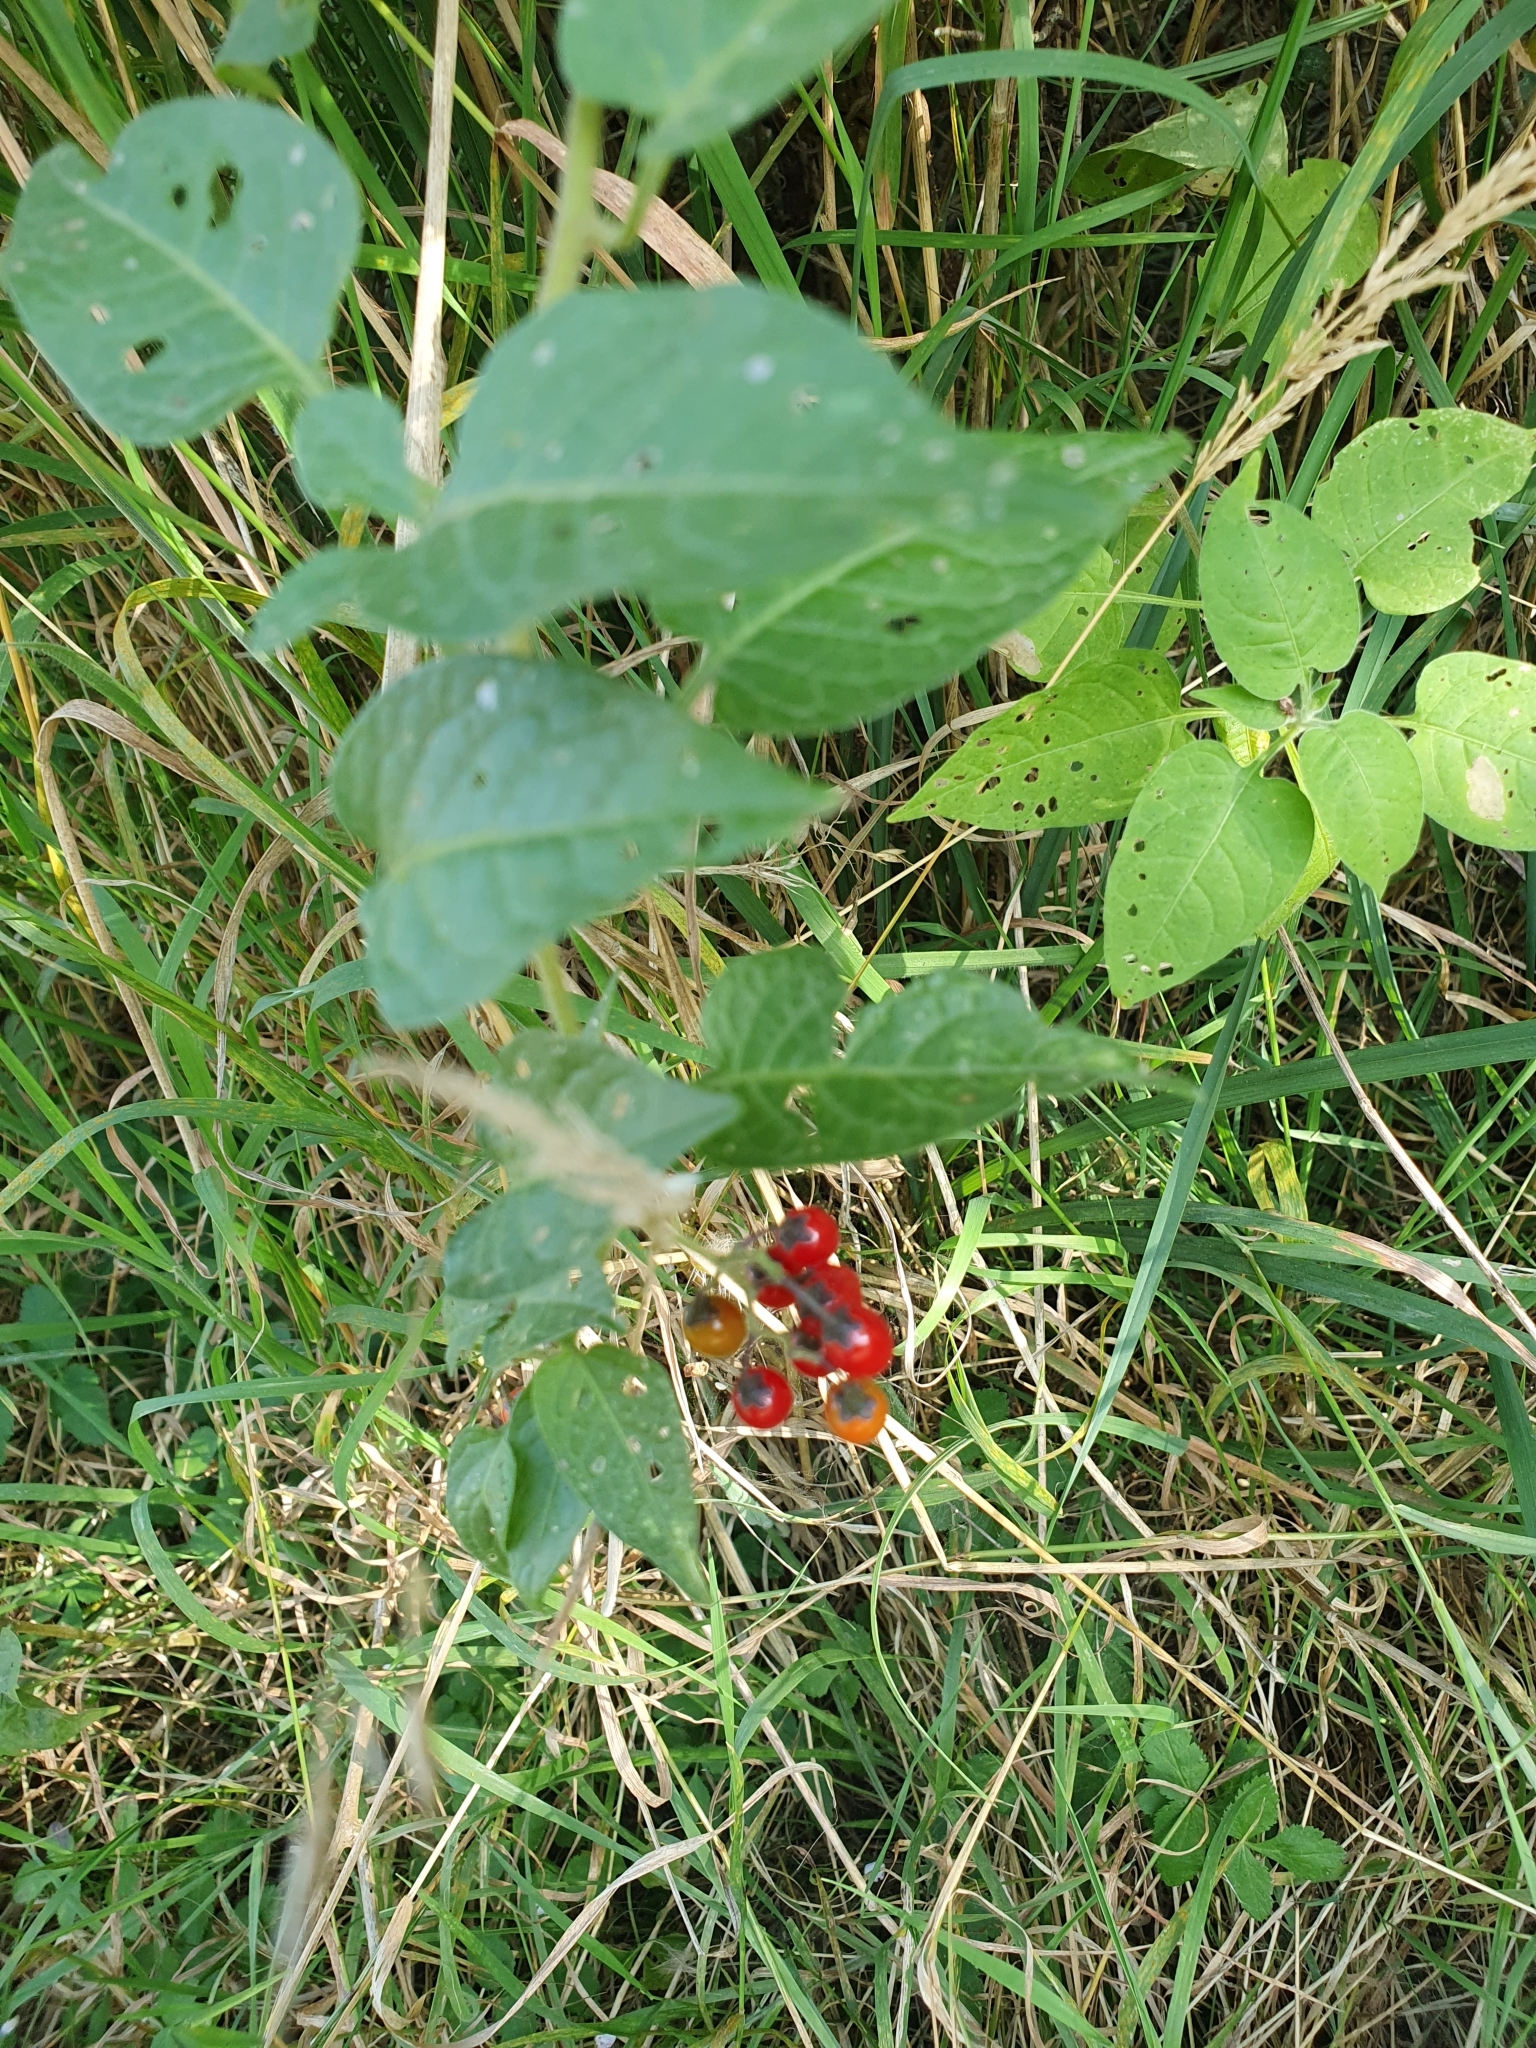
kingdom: Plantae
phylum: Tracheophyta
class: Magnoliopsida
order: Solanales
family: Solanaceae
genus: Solanum
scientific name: Solanum dulcamara
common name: Climbing nightshade
